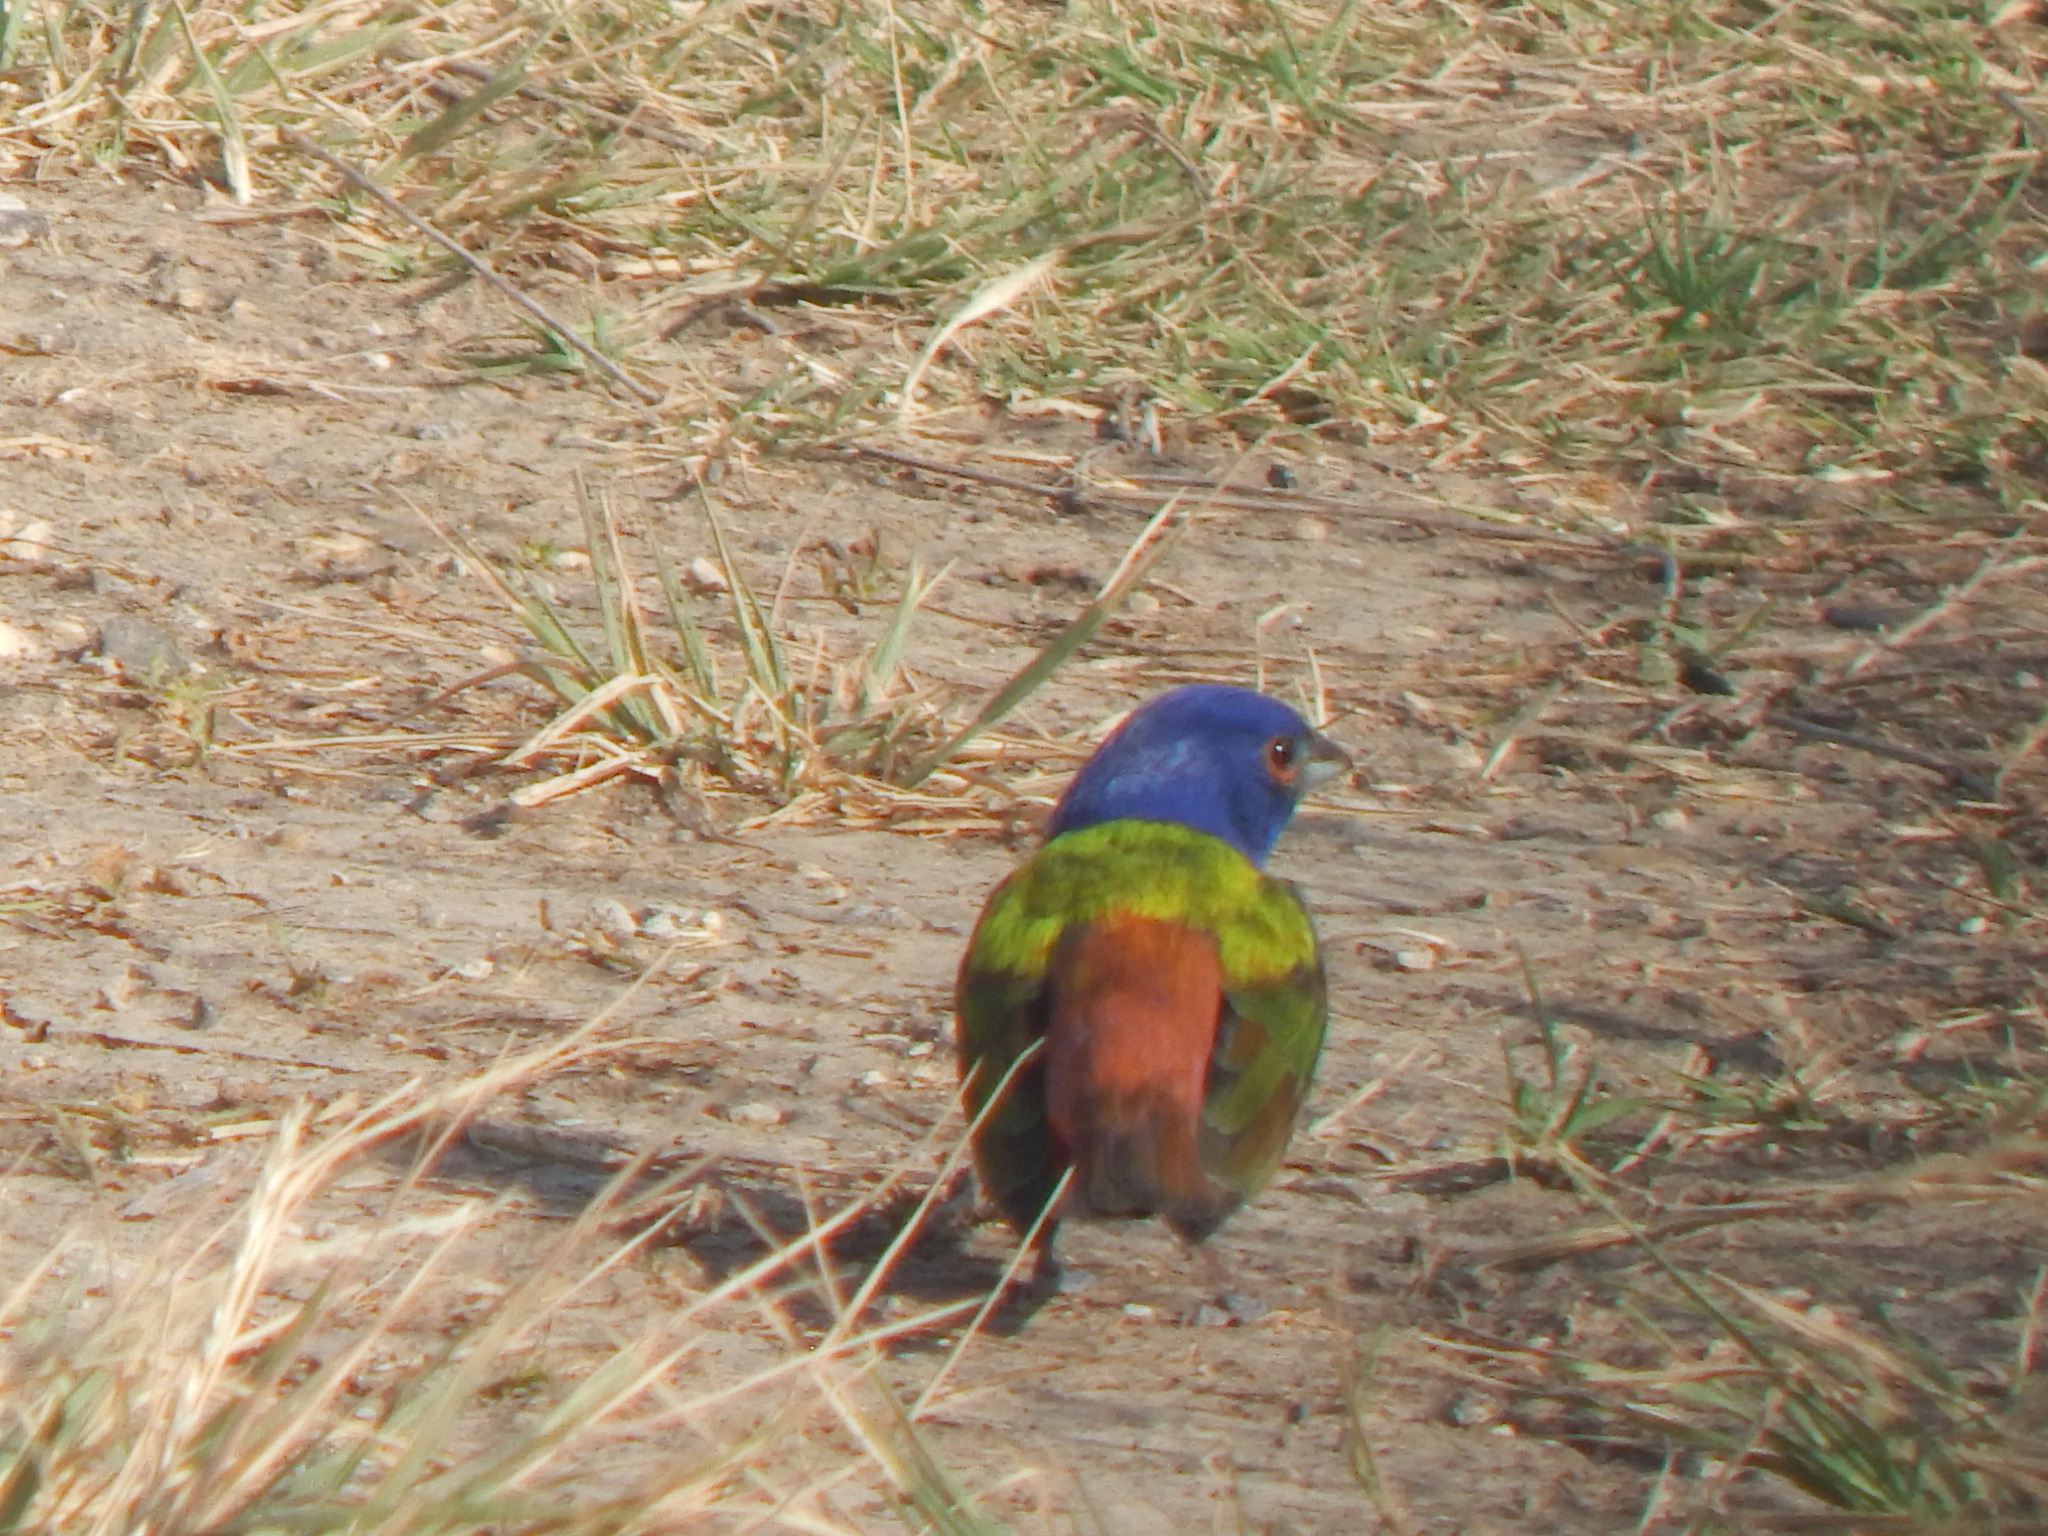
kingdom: Animalia
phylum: Chordata
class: Aves
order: Passeriformes
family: Cardinalidae
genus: Passerina
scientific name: Passerina ciris
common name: Painted bunting
